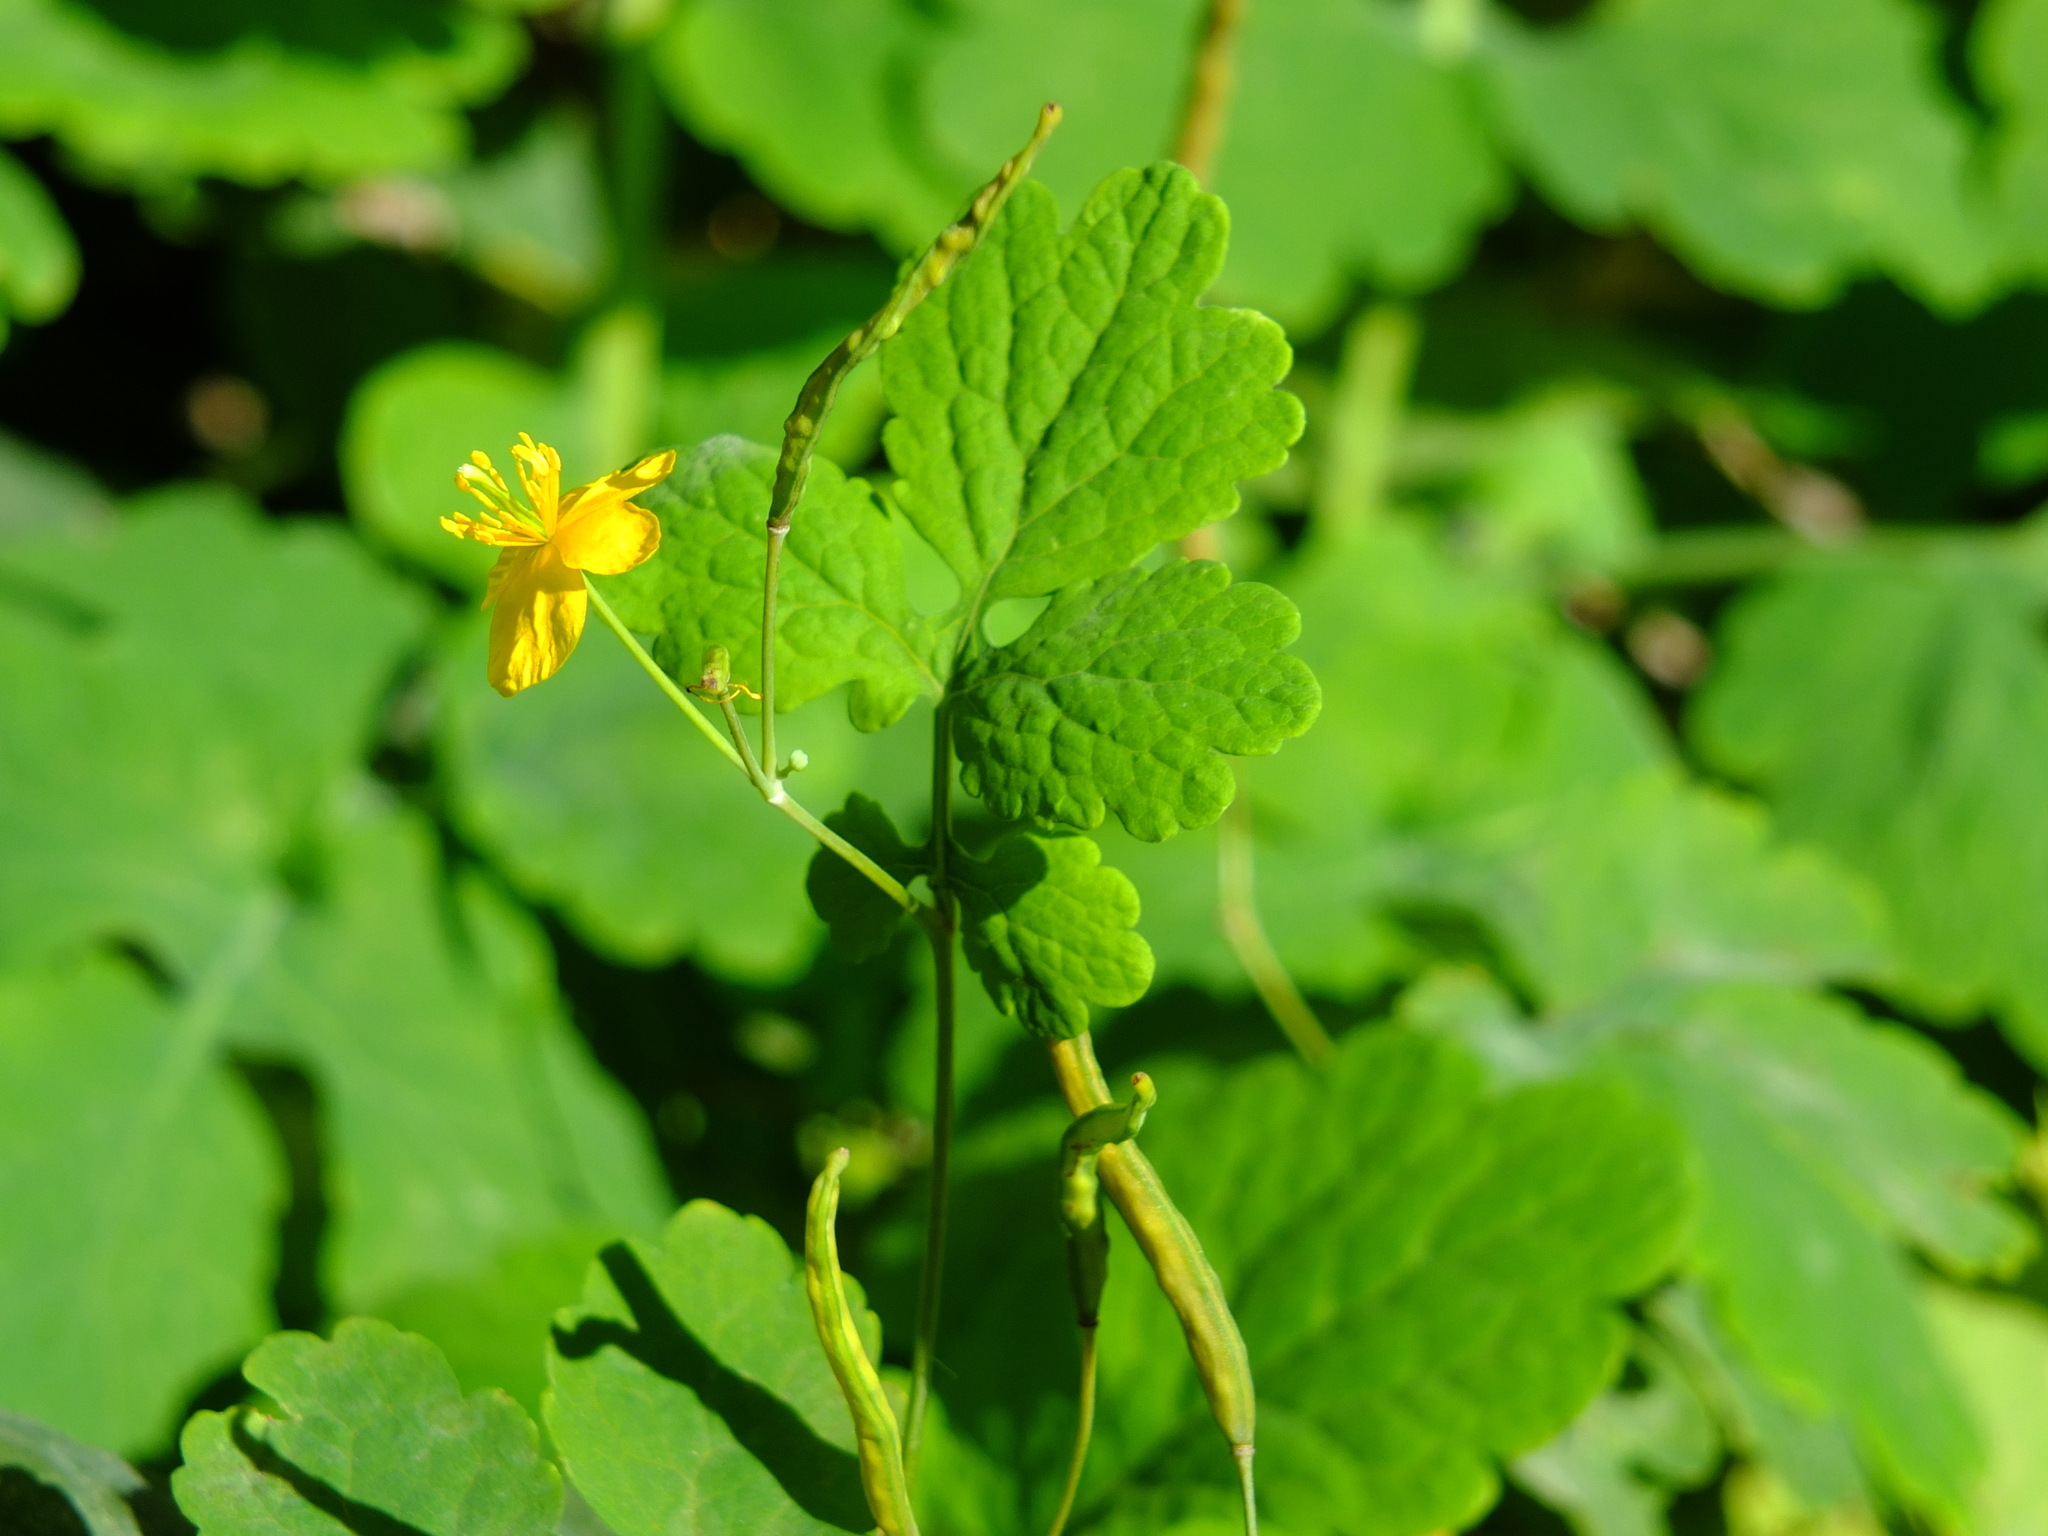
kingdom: Plantae
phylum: Tracheophyta
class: Magnoliopsida
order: Ranunculales
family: Papaveraceae
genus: Chelidonium
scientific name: Chelidonium majus
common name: Greater celandine
